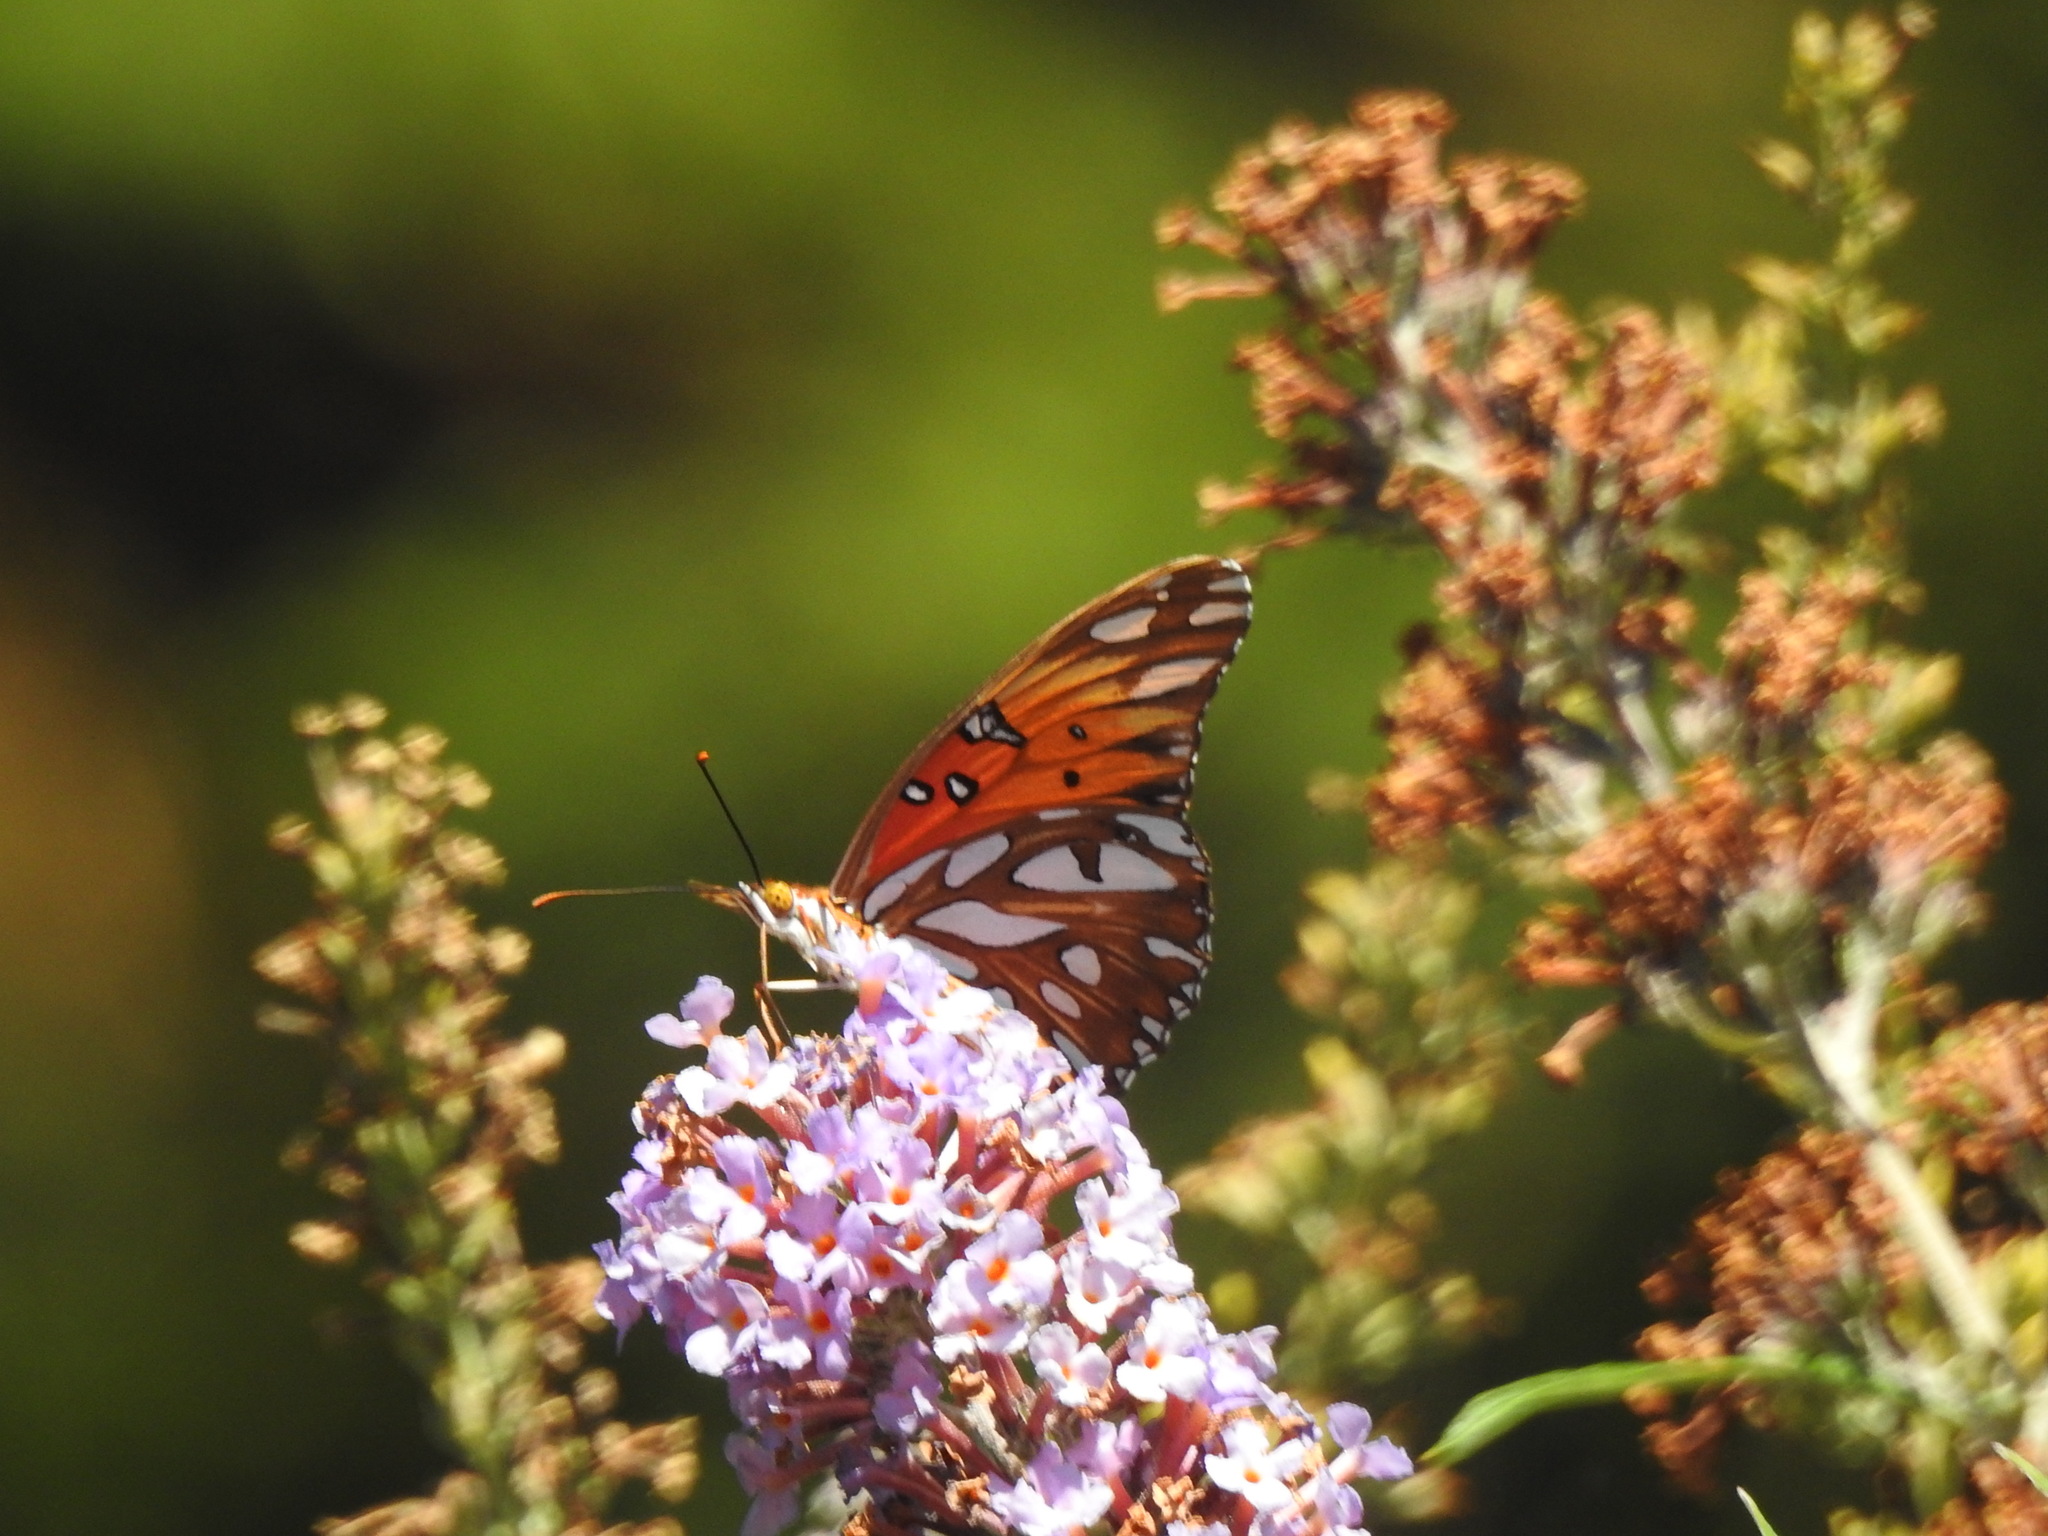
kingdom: Animalia
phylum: Arthropoda
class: Insecta
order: Lepidoptera
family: Nymphalidae
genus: Dione
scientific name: Dione vanillae
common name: Gulf fritillary
